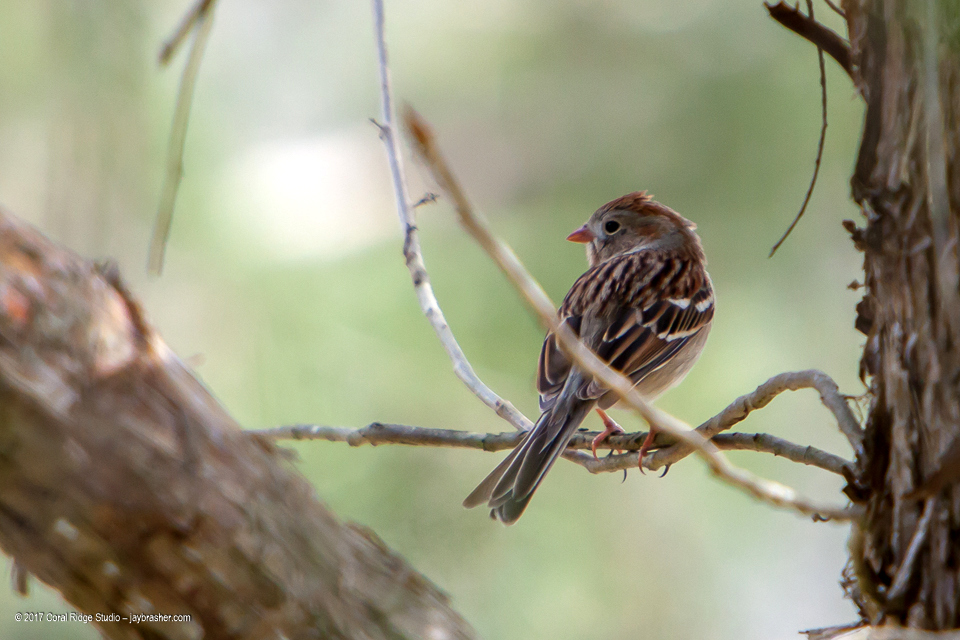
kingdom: Animalia
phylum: Chordata
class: Aves
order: Passeriformes
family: Passerellidae
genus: Spizella
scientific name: Spizella pusilla
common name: Field sparrow
